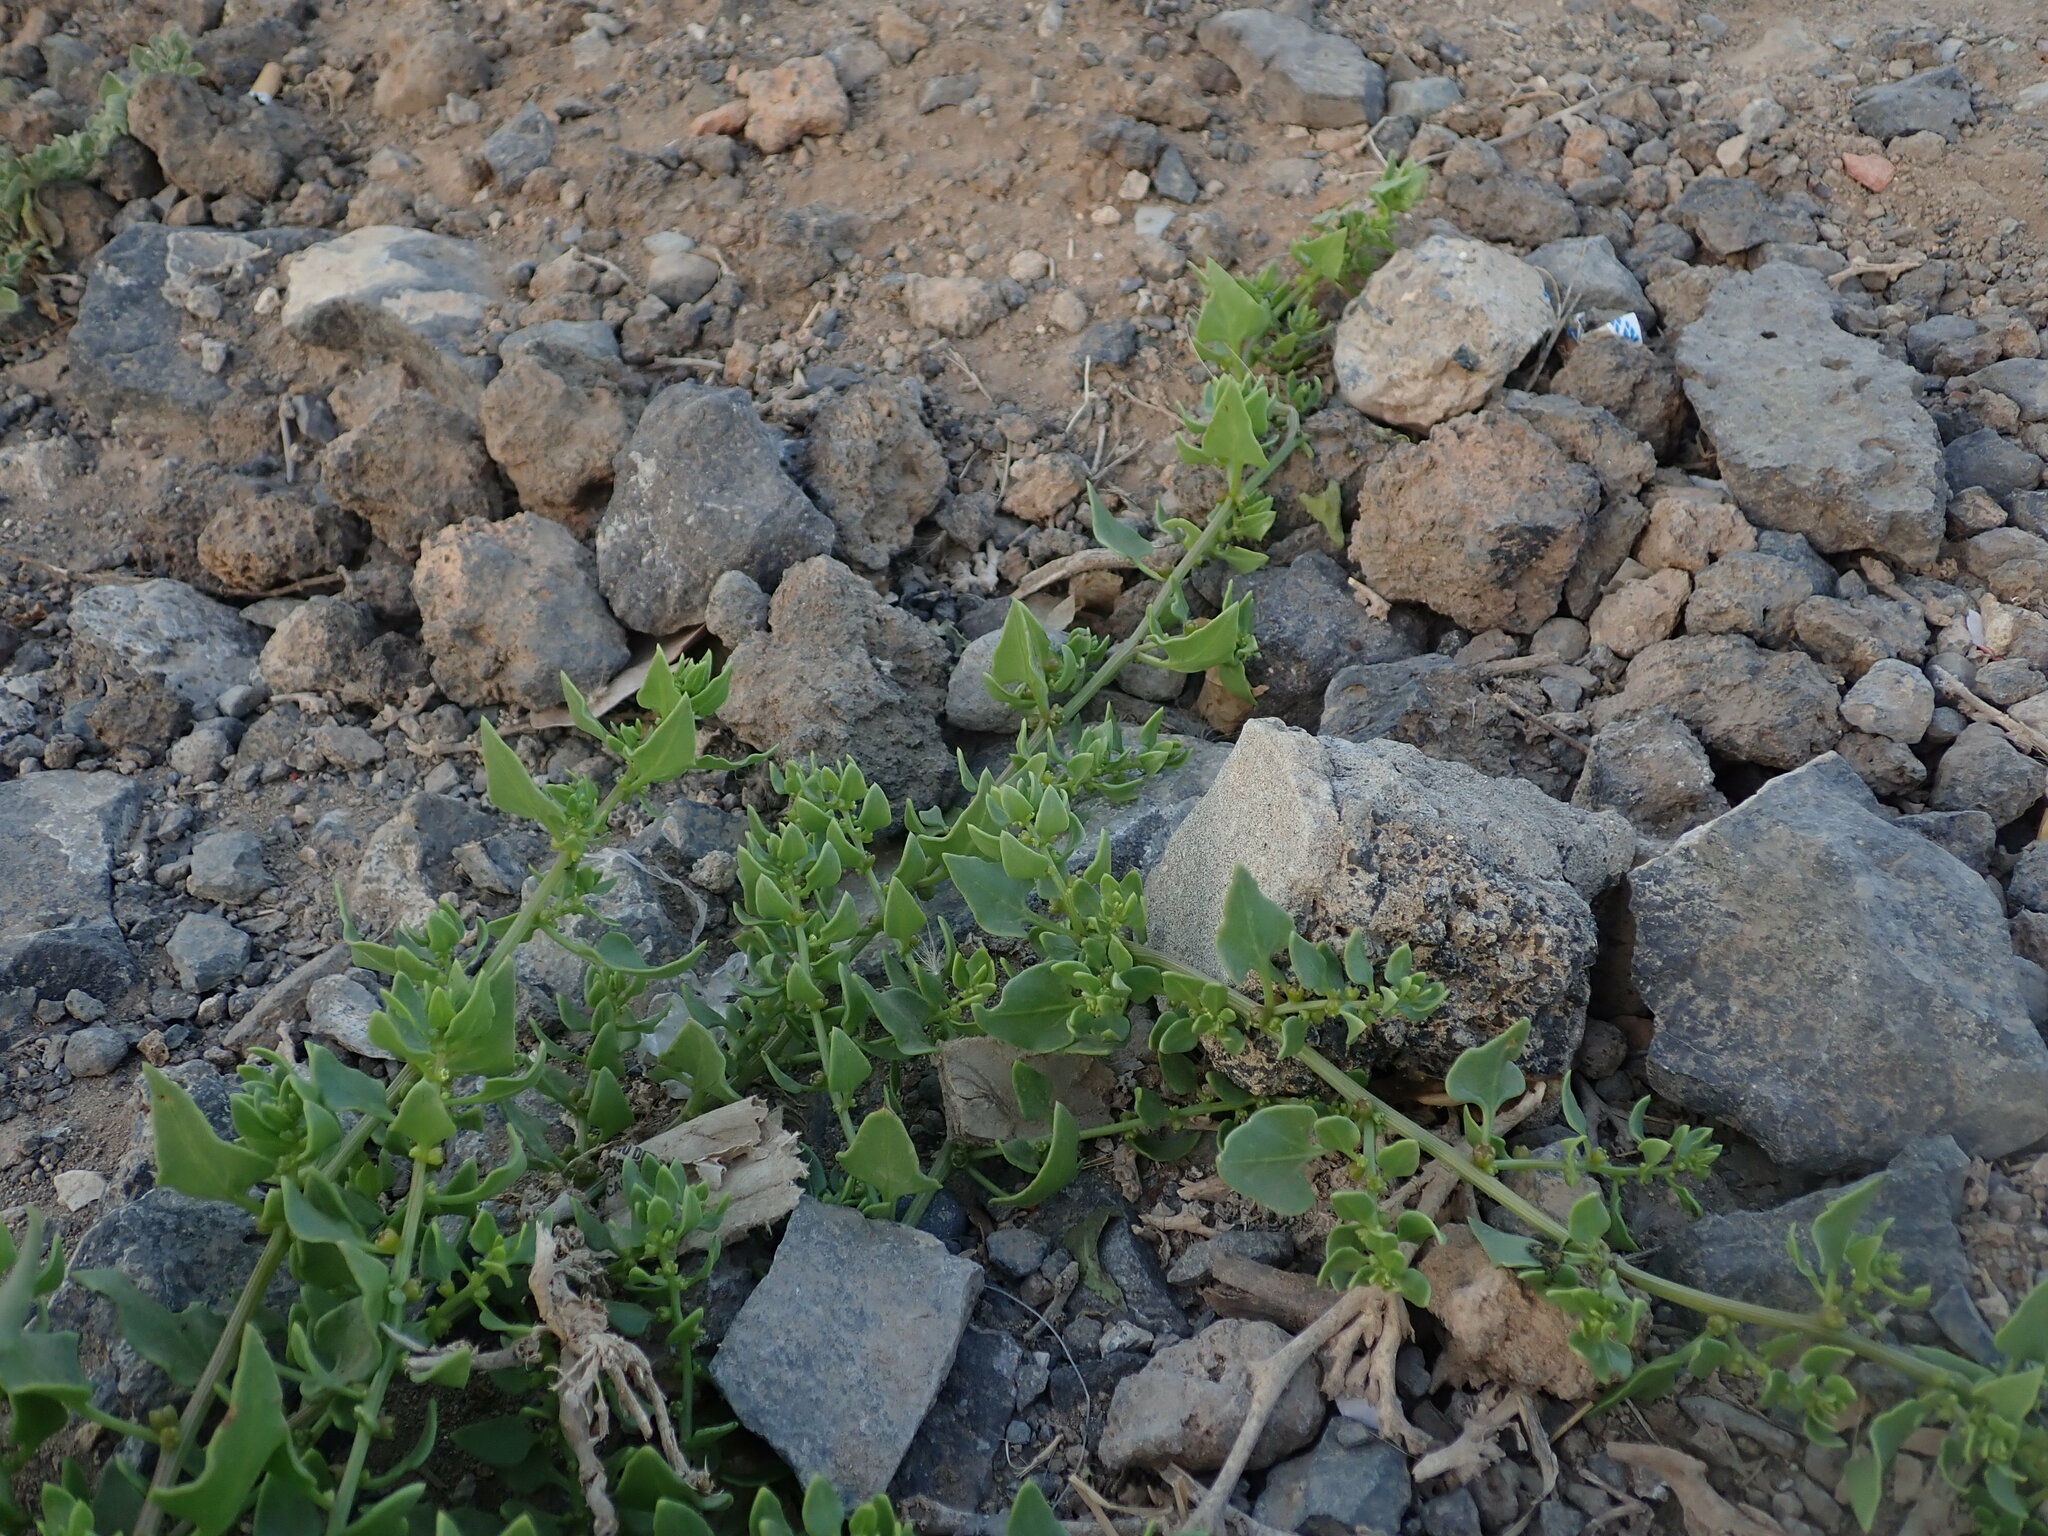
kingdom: Plantae
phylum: Tracheophyta
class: Magnoliopsida
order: Caryophyllales
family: Amaranthaceae
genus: Patellifolia
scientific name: Patellifolia procumbens
